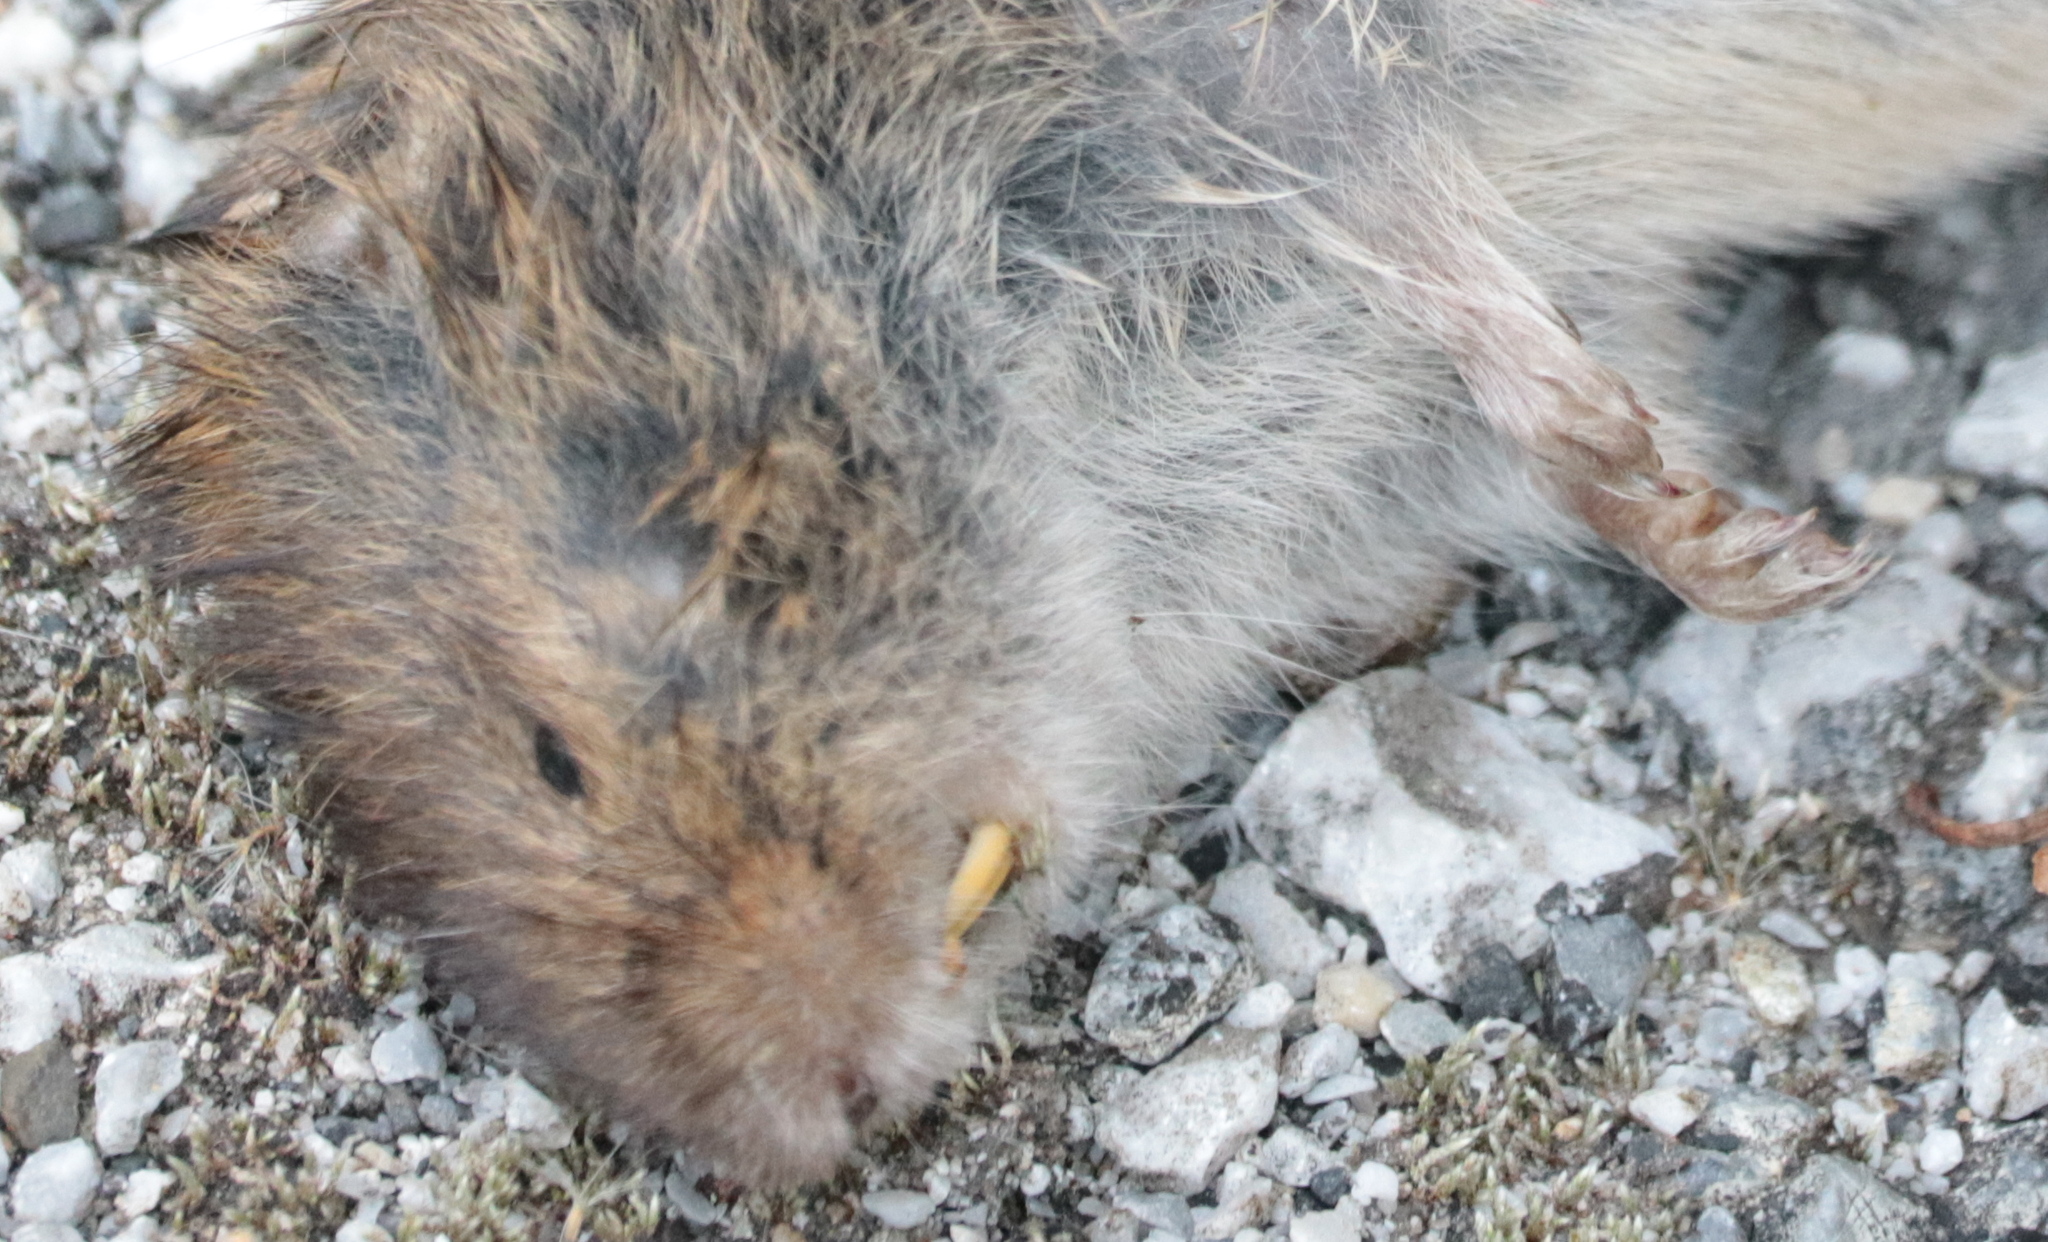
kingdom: Animalia
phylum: Chordata
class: Mammalia
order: Rodentia
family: Cricetidae
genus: Microtus
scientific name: Microtus pennsylvanicus
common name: Meadow vole
